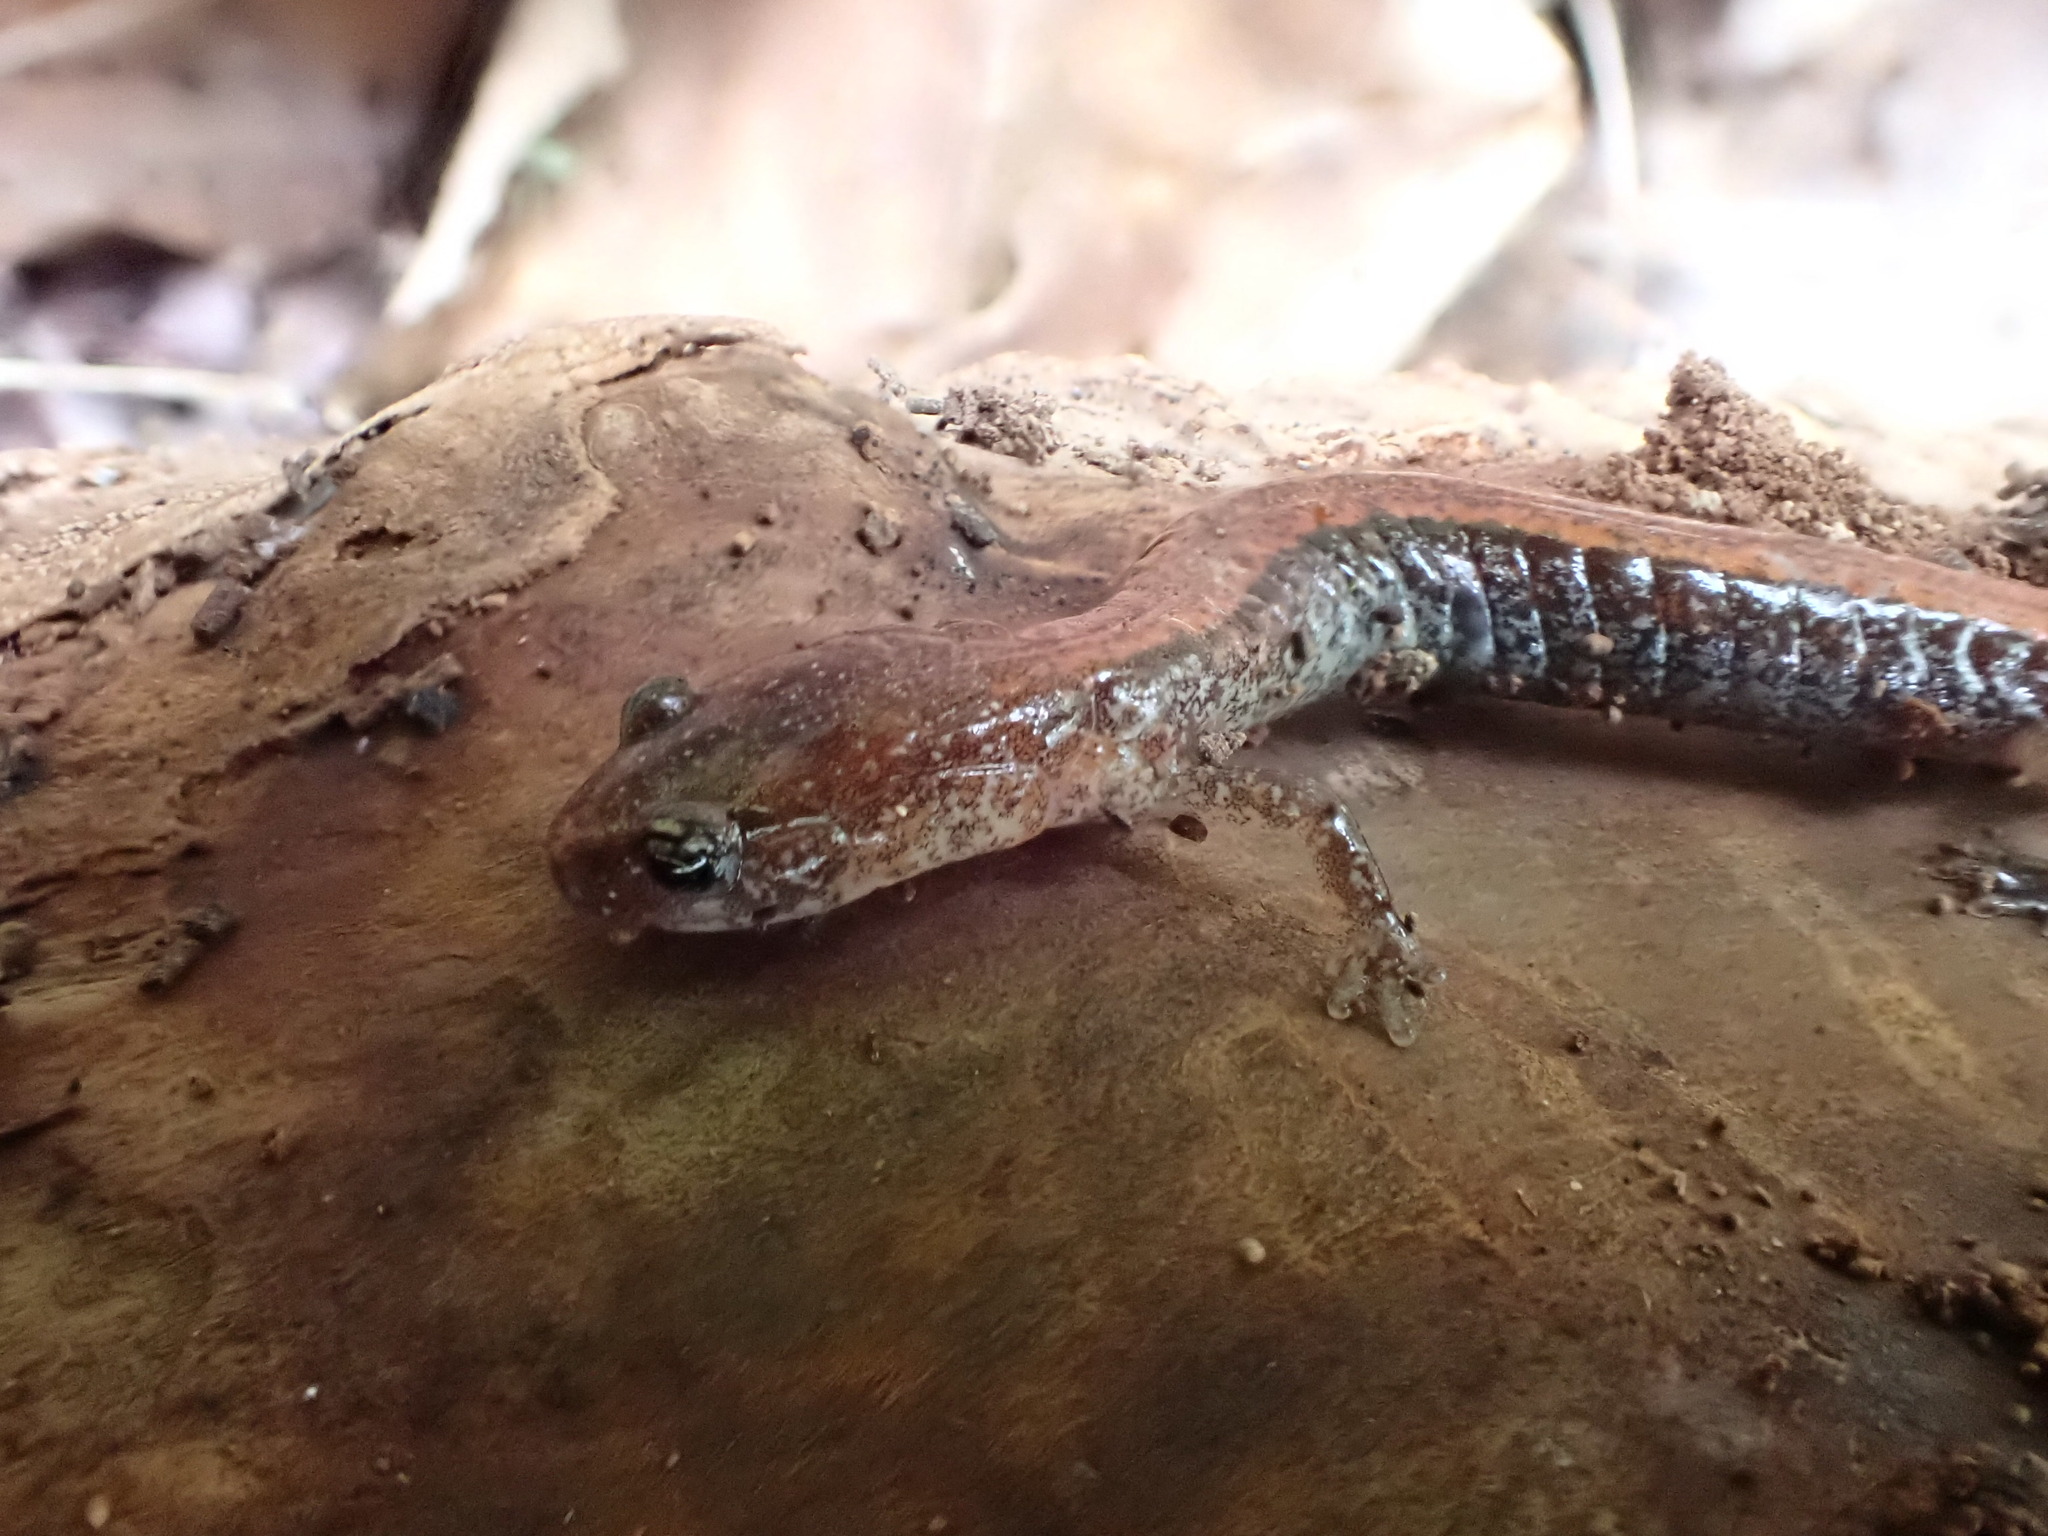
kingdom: Animalia
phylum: Chordata
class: Amphibia
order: Caudata
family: Plethodontidae
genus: Plethodon
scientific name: Plethodon cinereus
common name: Redback salamander
